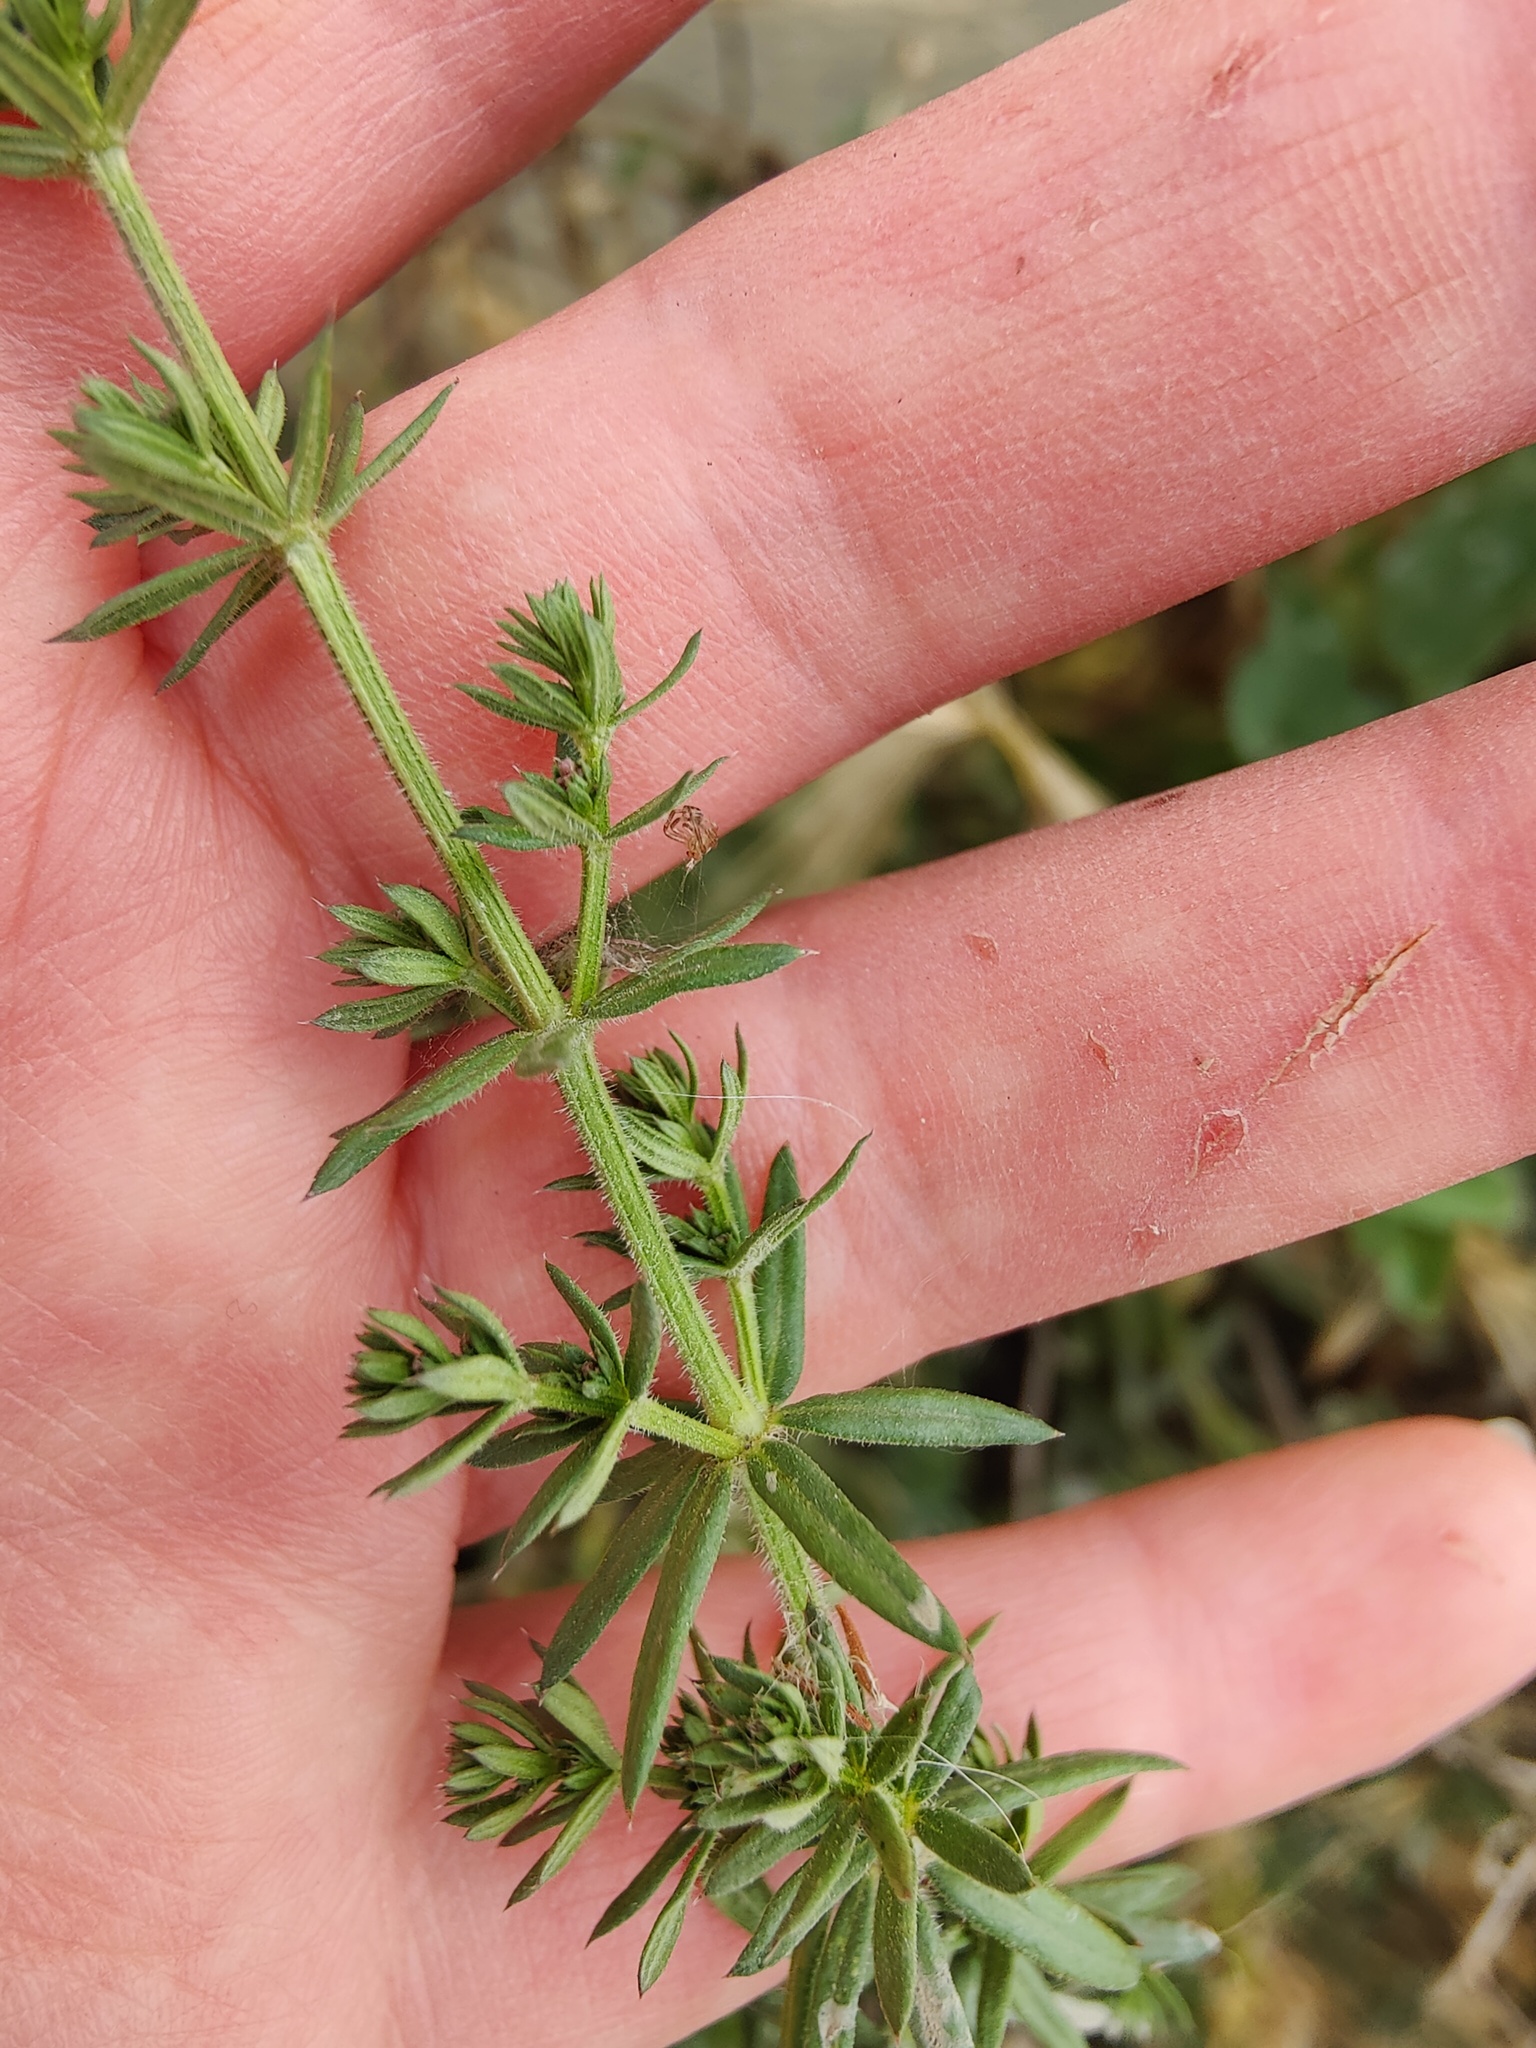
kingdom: Plantae
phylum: Tracheophyta
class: Magnoliopsida
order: Gentianales
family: Rubiaceae
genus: Galium
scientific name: Galium humifusum
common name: Spreading bedstraw
